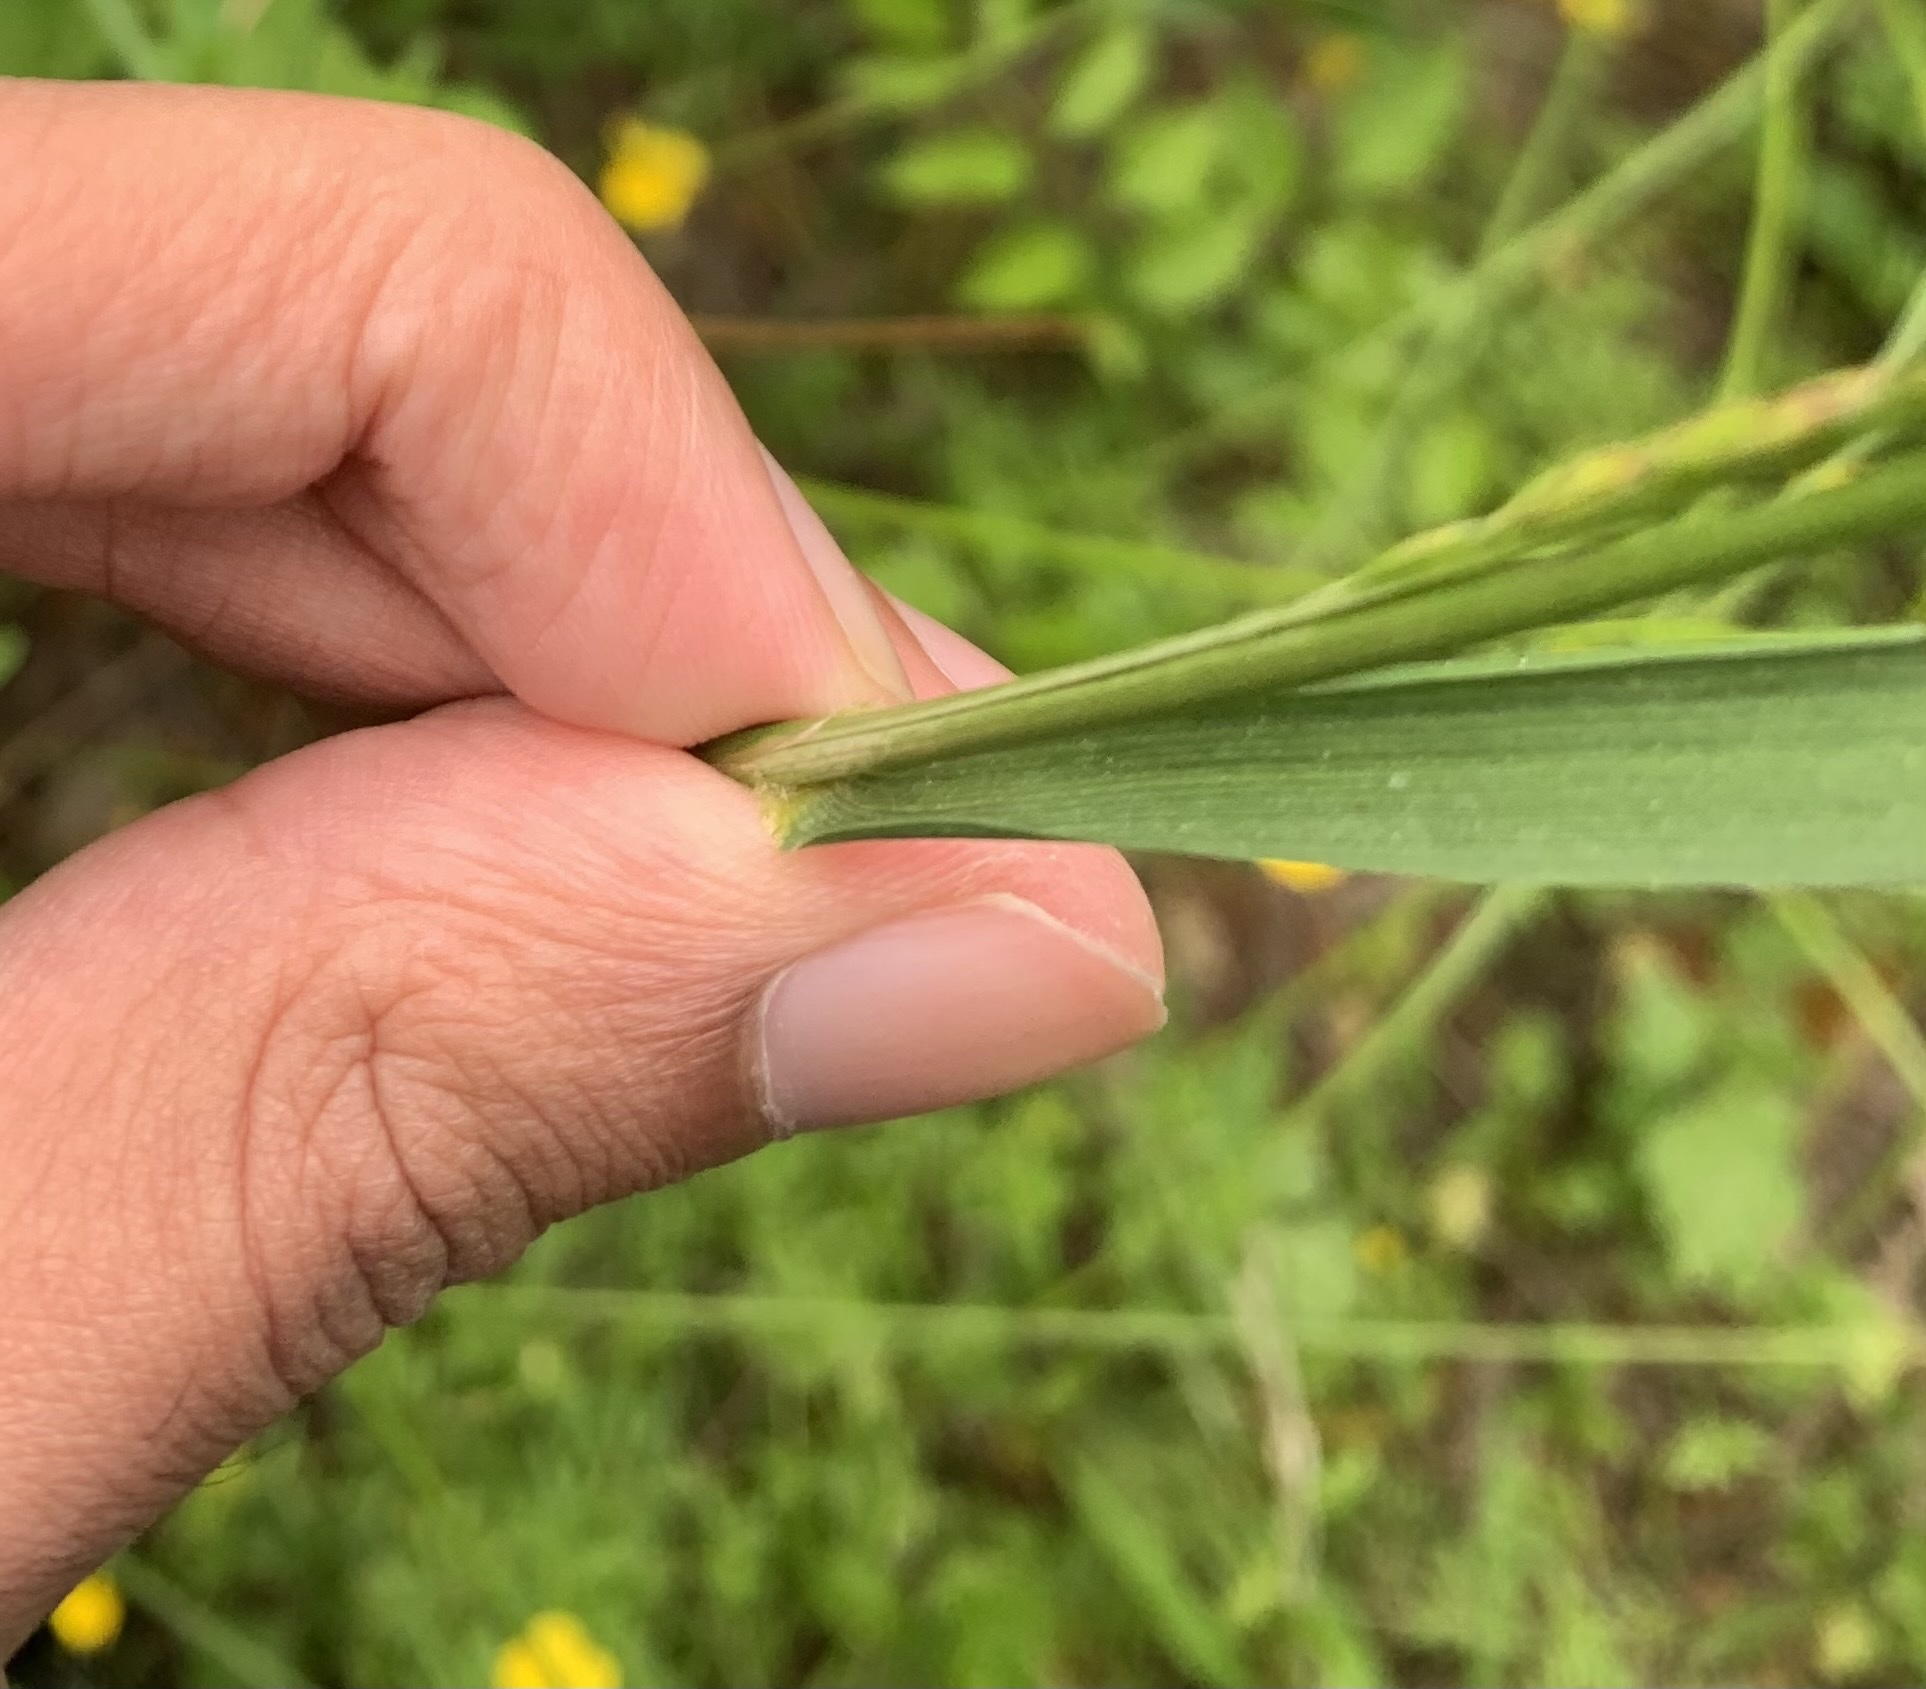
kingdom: Plantae
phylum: Tracheophyta
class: Liliopsida
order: Poales
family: Poaceae
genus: Lolium
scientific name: Lolium arundinaceum
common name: Reed fescue
